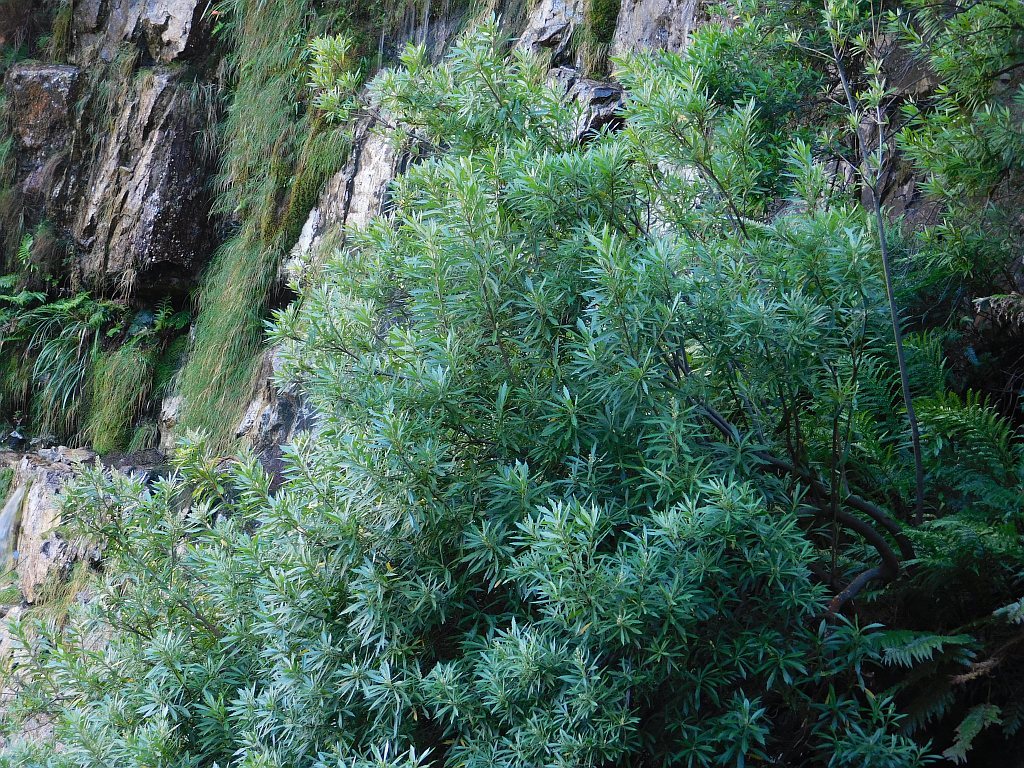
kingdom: Plantae
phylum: Tracheophyta
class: Magnoliopsida
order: Asterales
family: Asteraceae
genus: Brachylaena
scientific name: Brachylaena neriifolia
